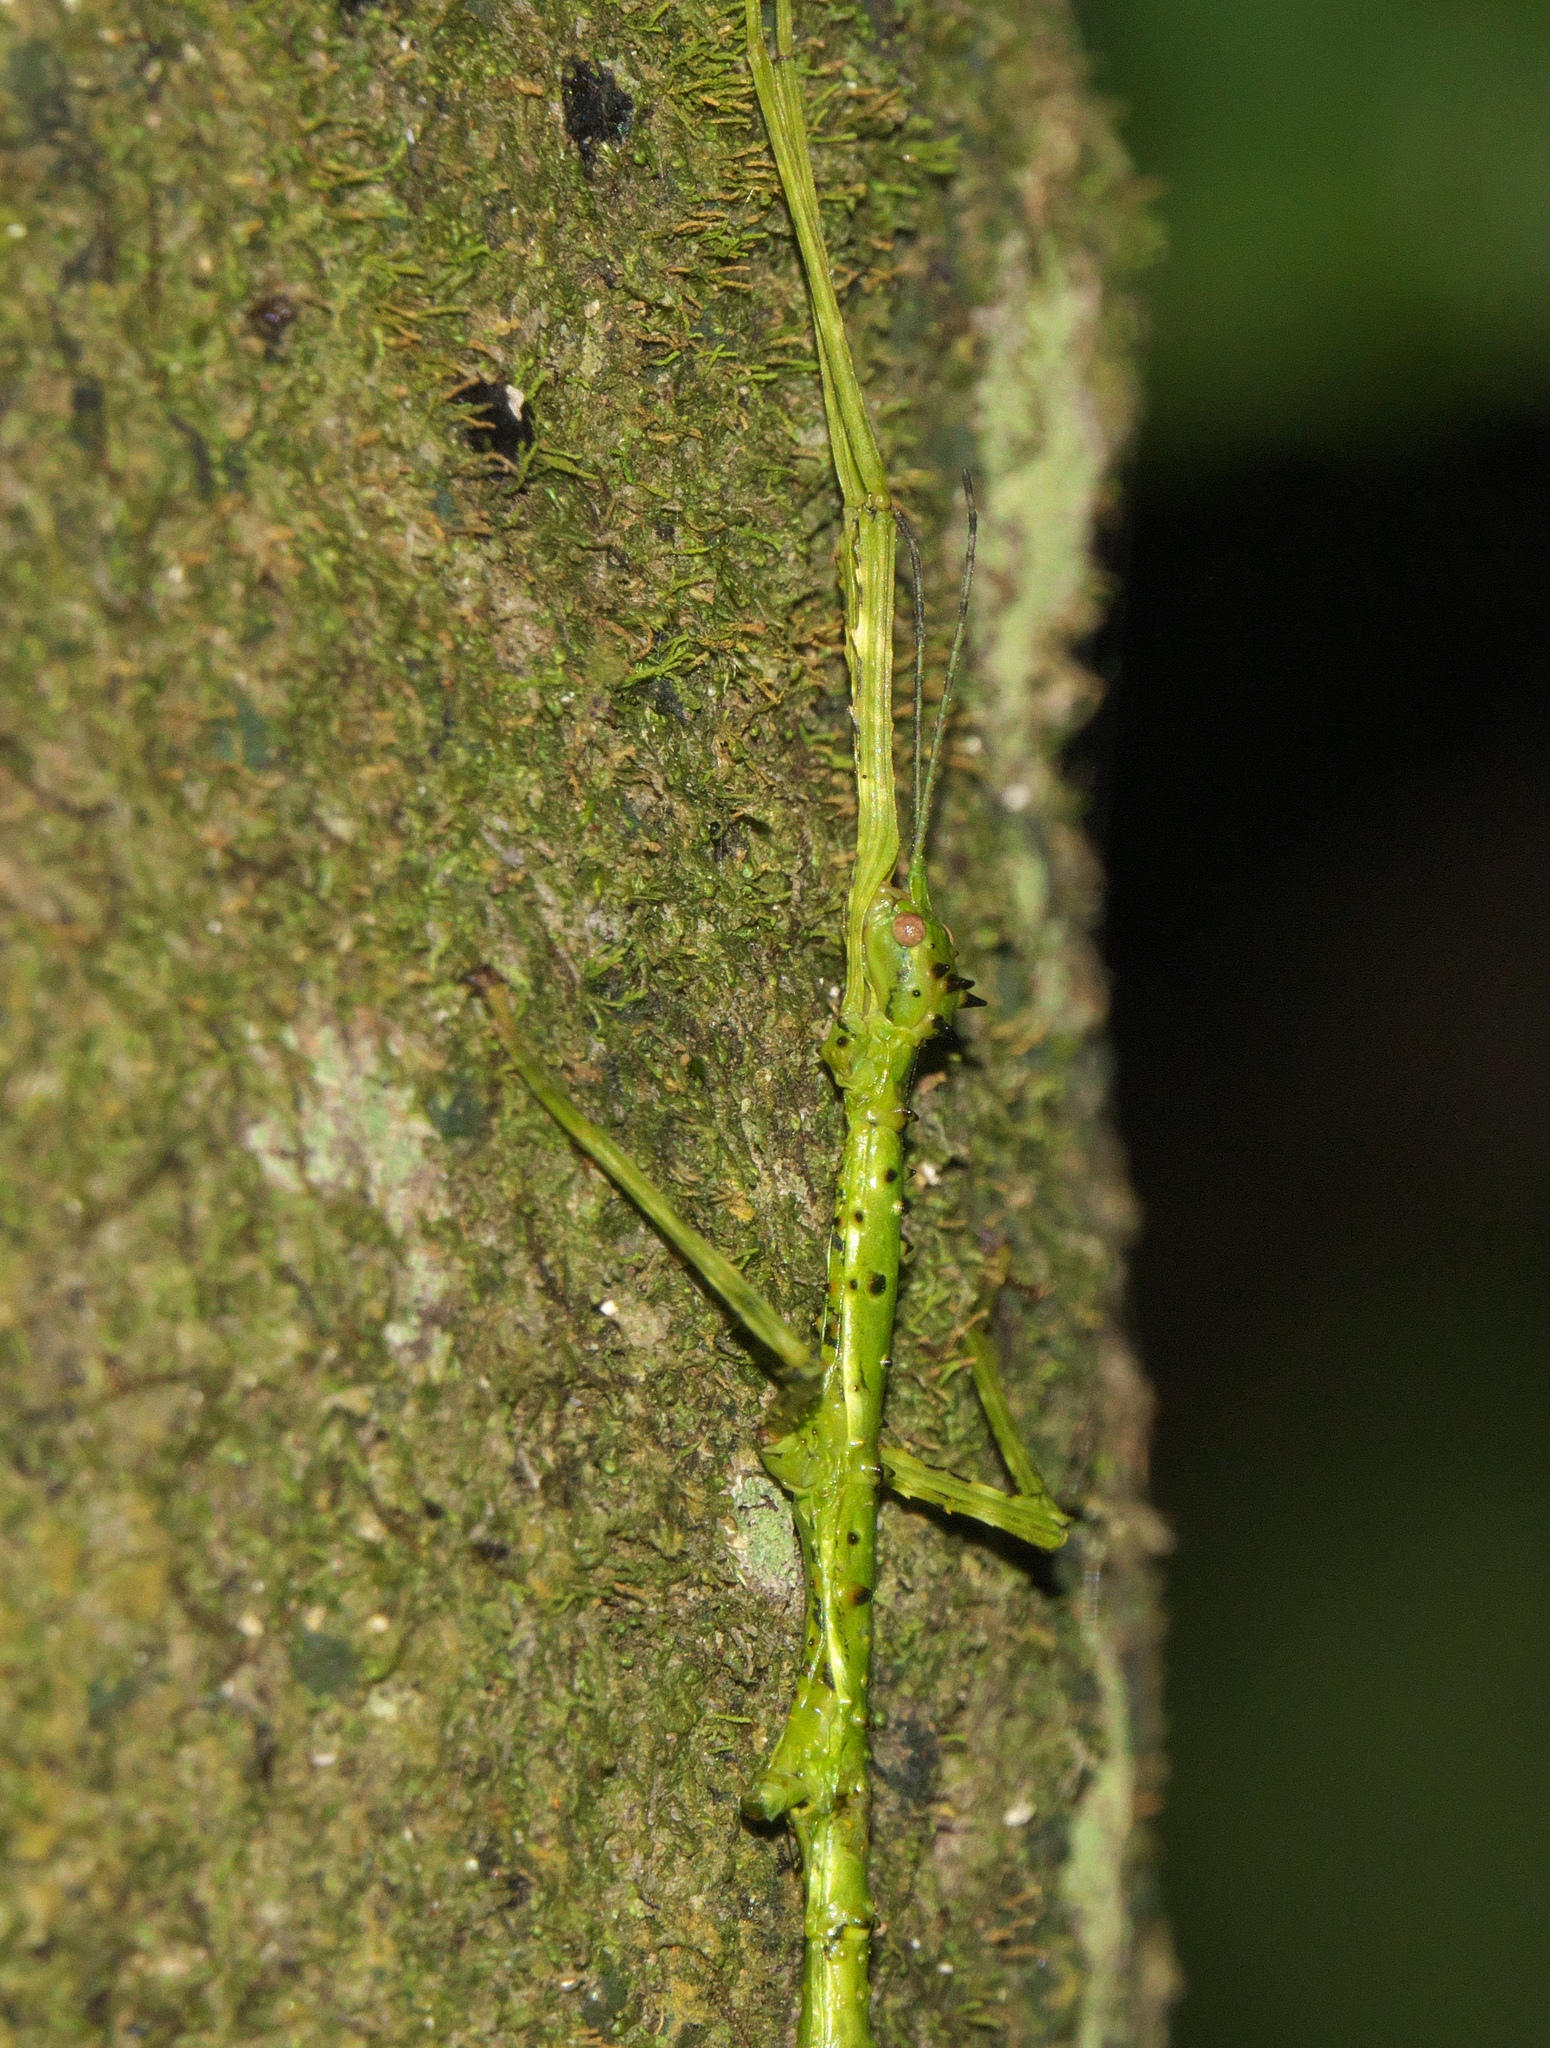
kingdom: Animalia
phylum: Arthropoda
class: Insecta
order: Phasmida
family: Phasmatidae
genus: Acanthoxyla
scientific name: Acanthoxyla prasina
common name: Black-spined stick insect
